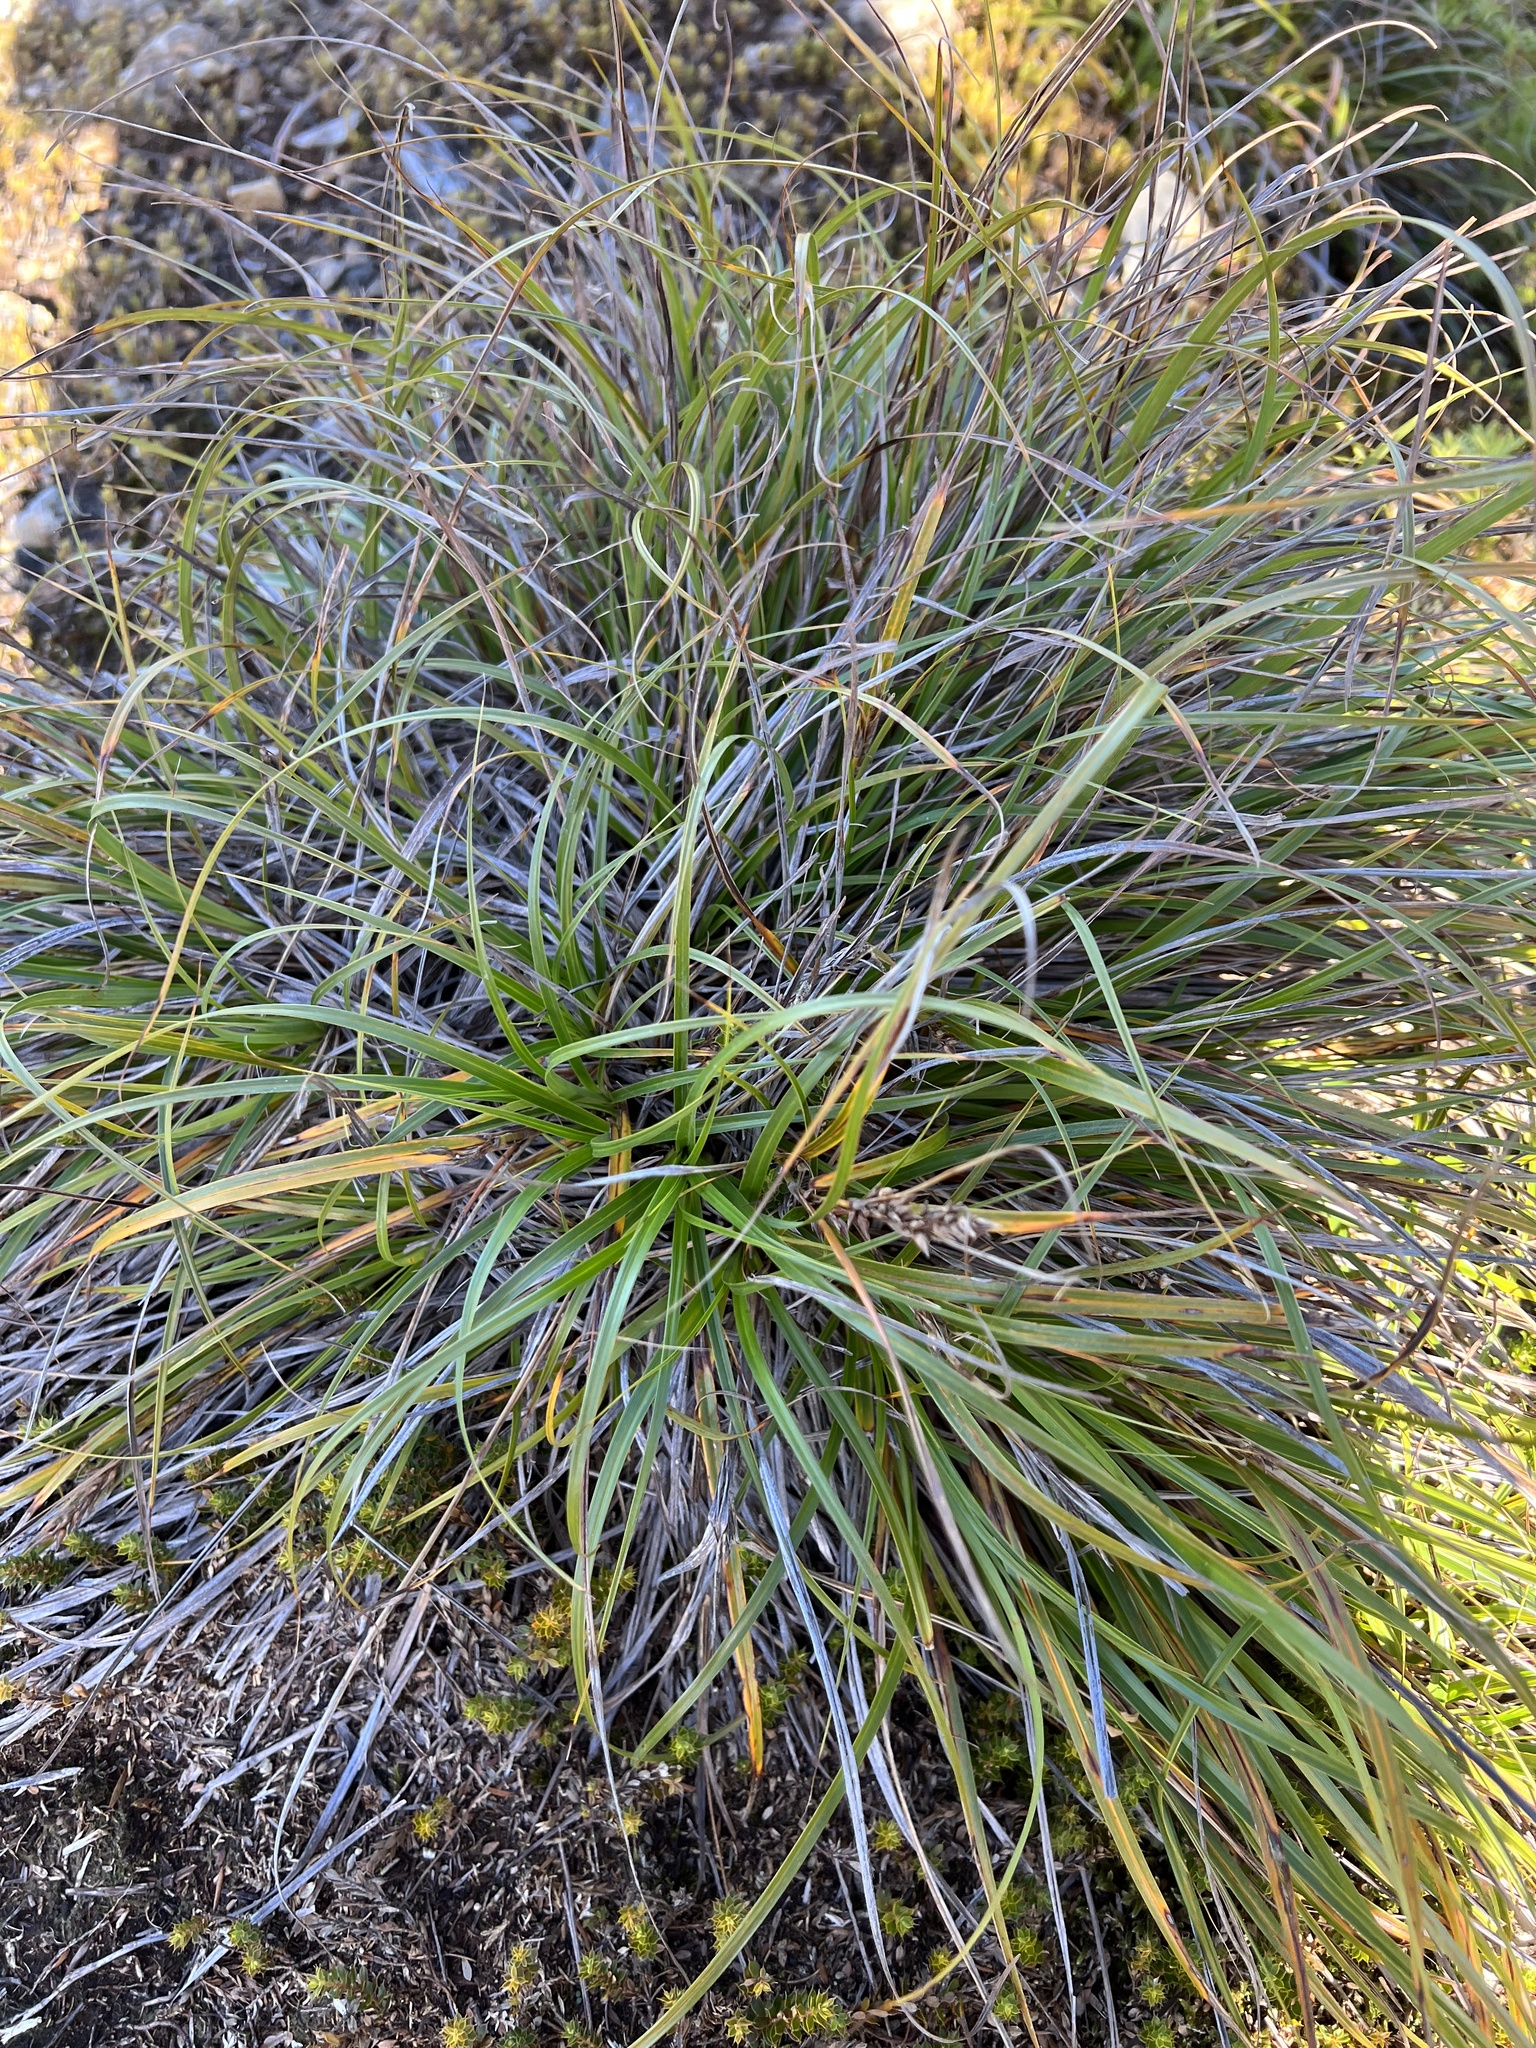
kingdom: Plantae
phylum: Tracheophyta
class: Liliopsida
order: Poales
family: Cyperaceae
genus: Morelotia
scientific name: Morelotia affinis
